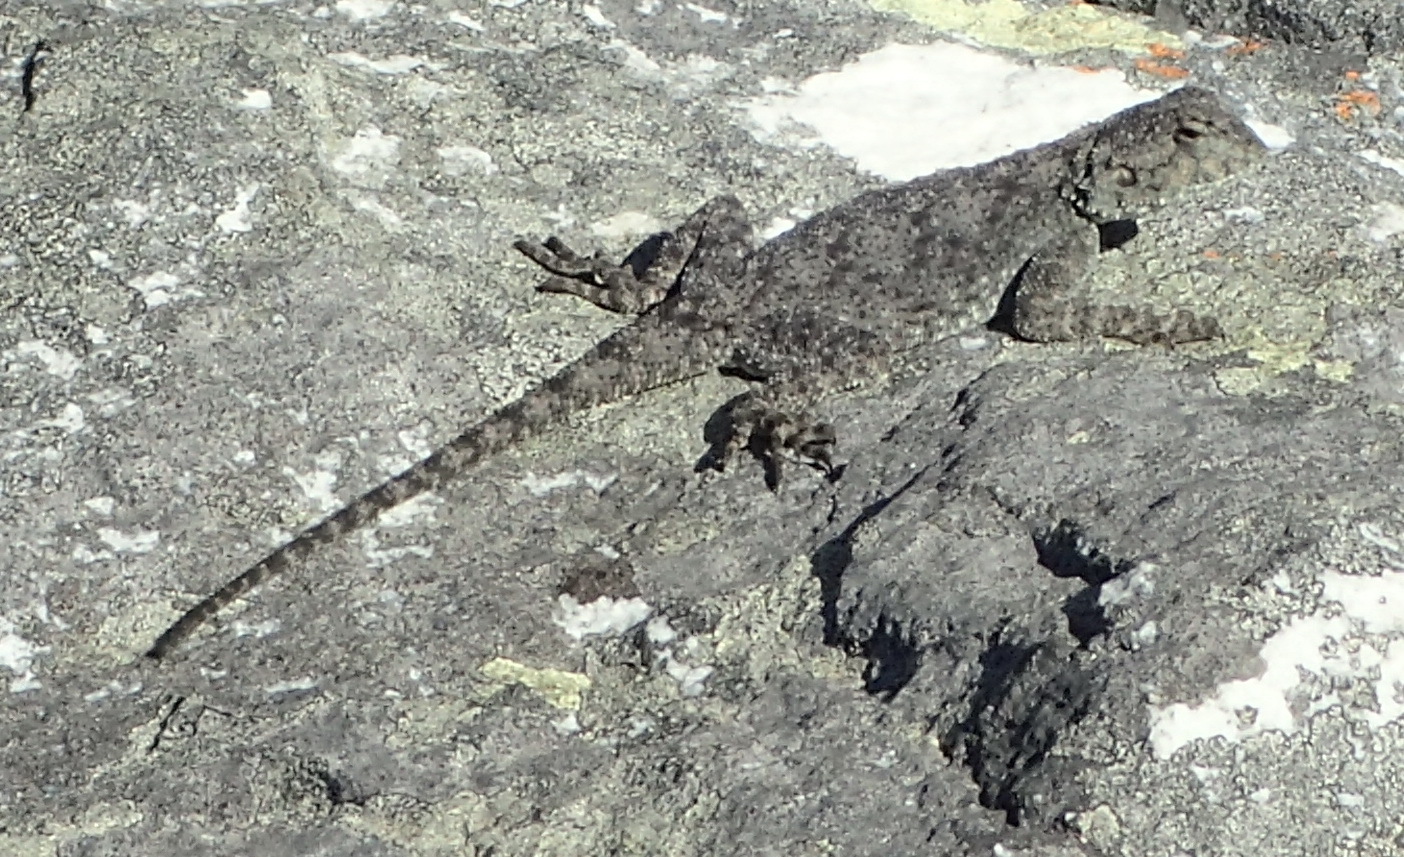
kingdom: Animalia
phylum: Chordata
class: Squamata
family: Agamidae
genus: Agama
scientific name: Agama atra
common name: Southern african rock agama
